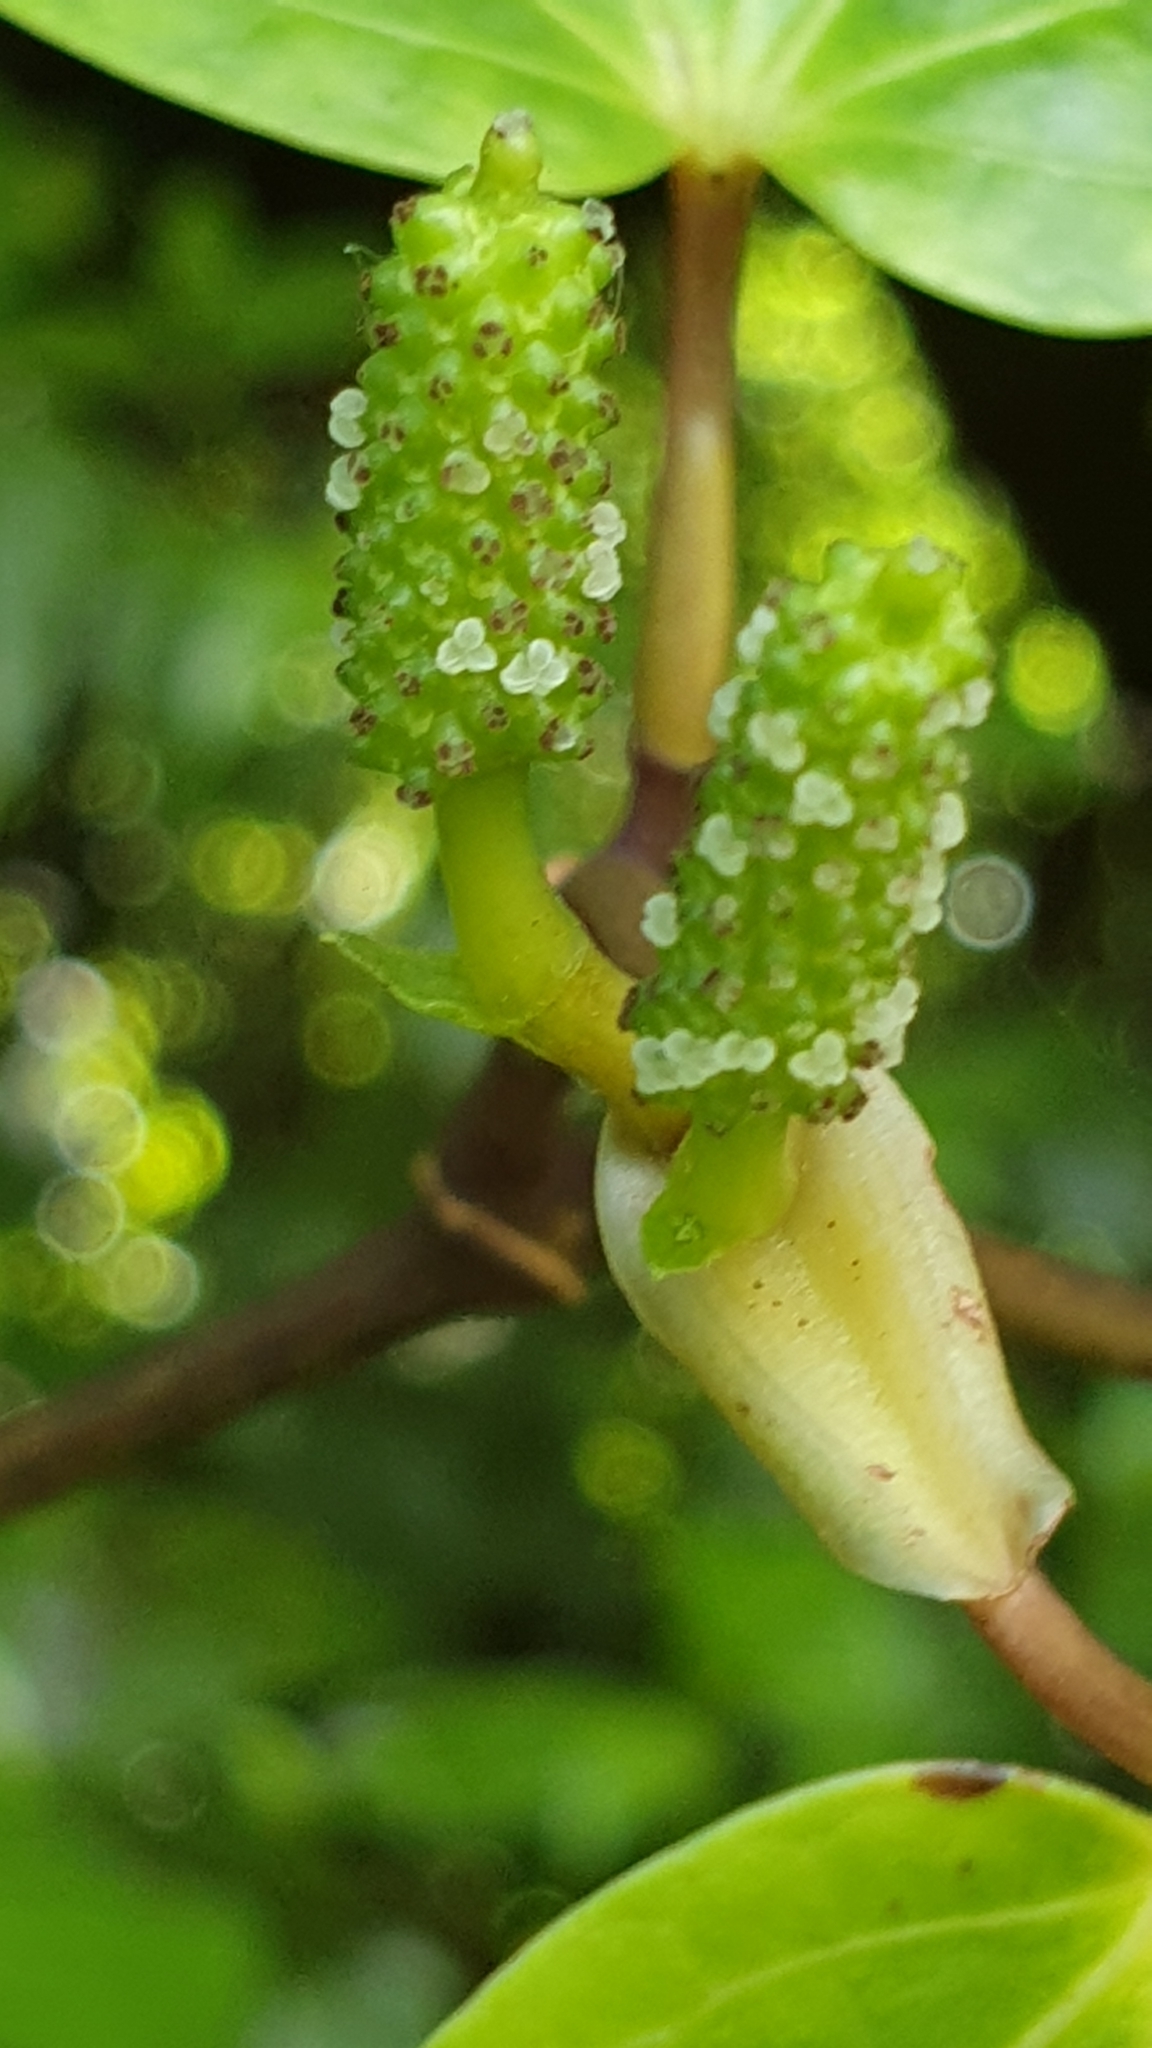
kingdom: Plantae
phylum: Tracheophyta
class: Magnoliopsida
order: Piperales
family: Piperaceae
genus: Macropiper
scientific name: Macropiper excelsum
